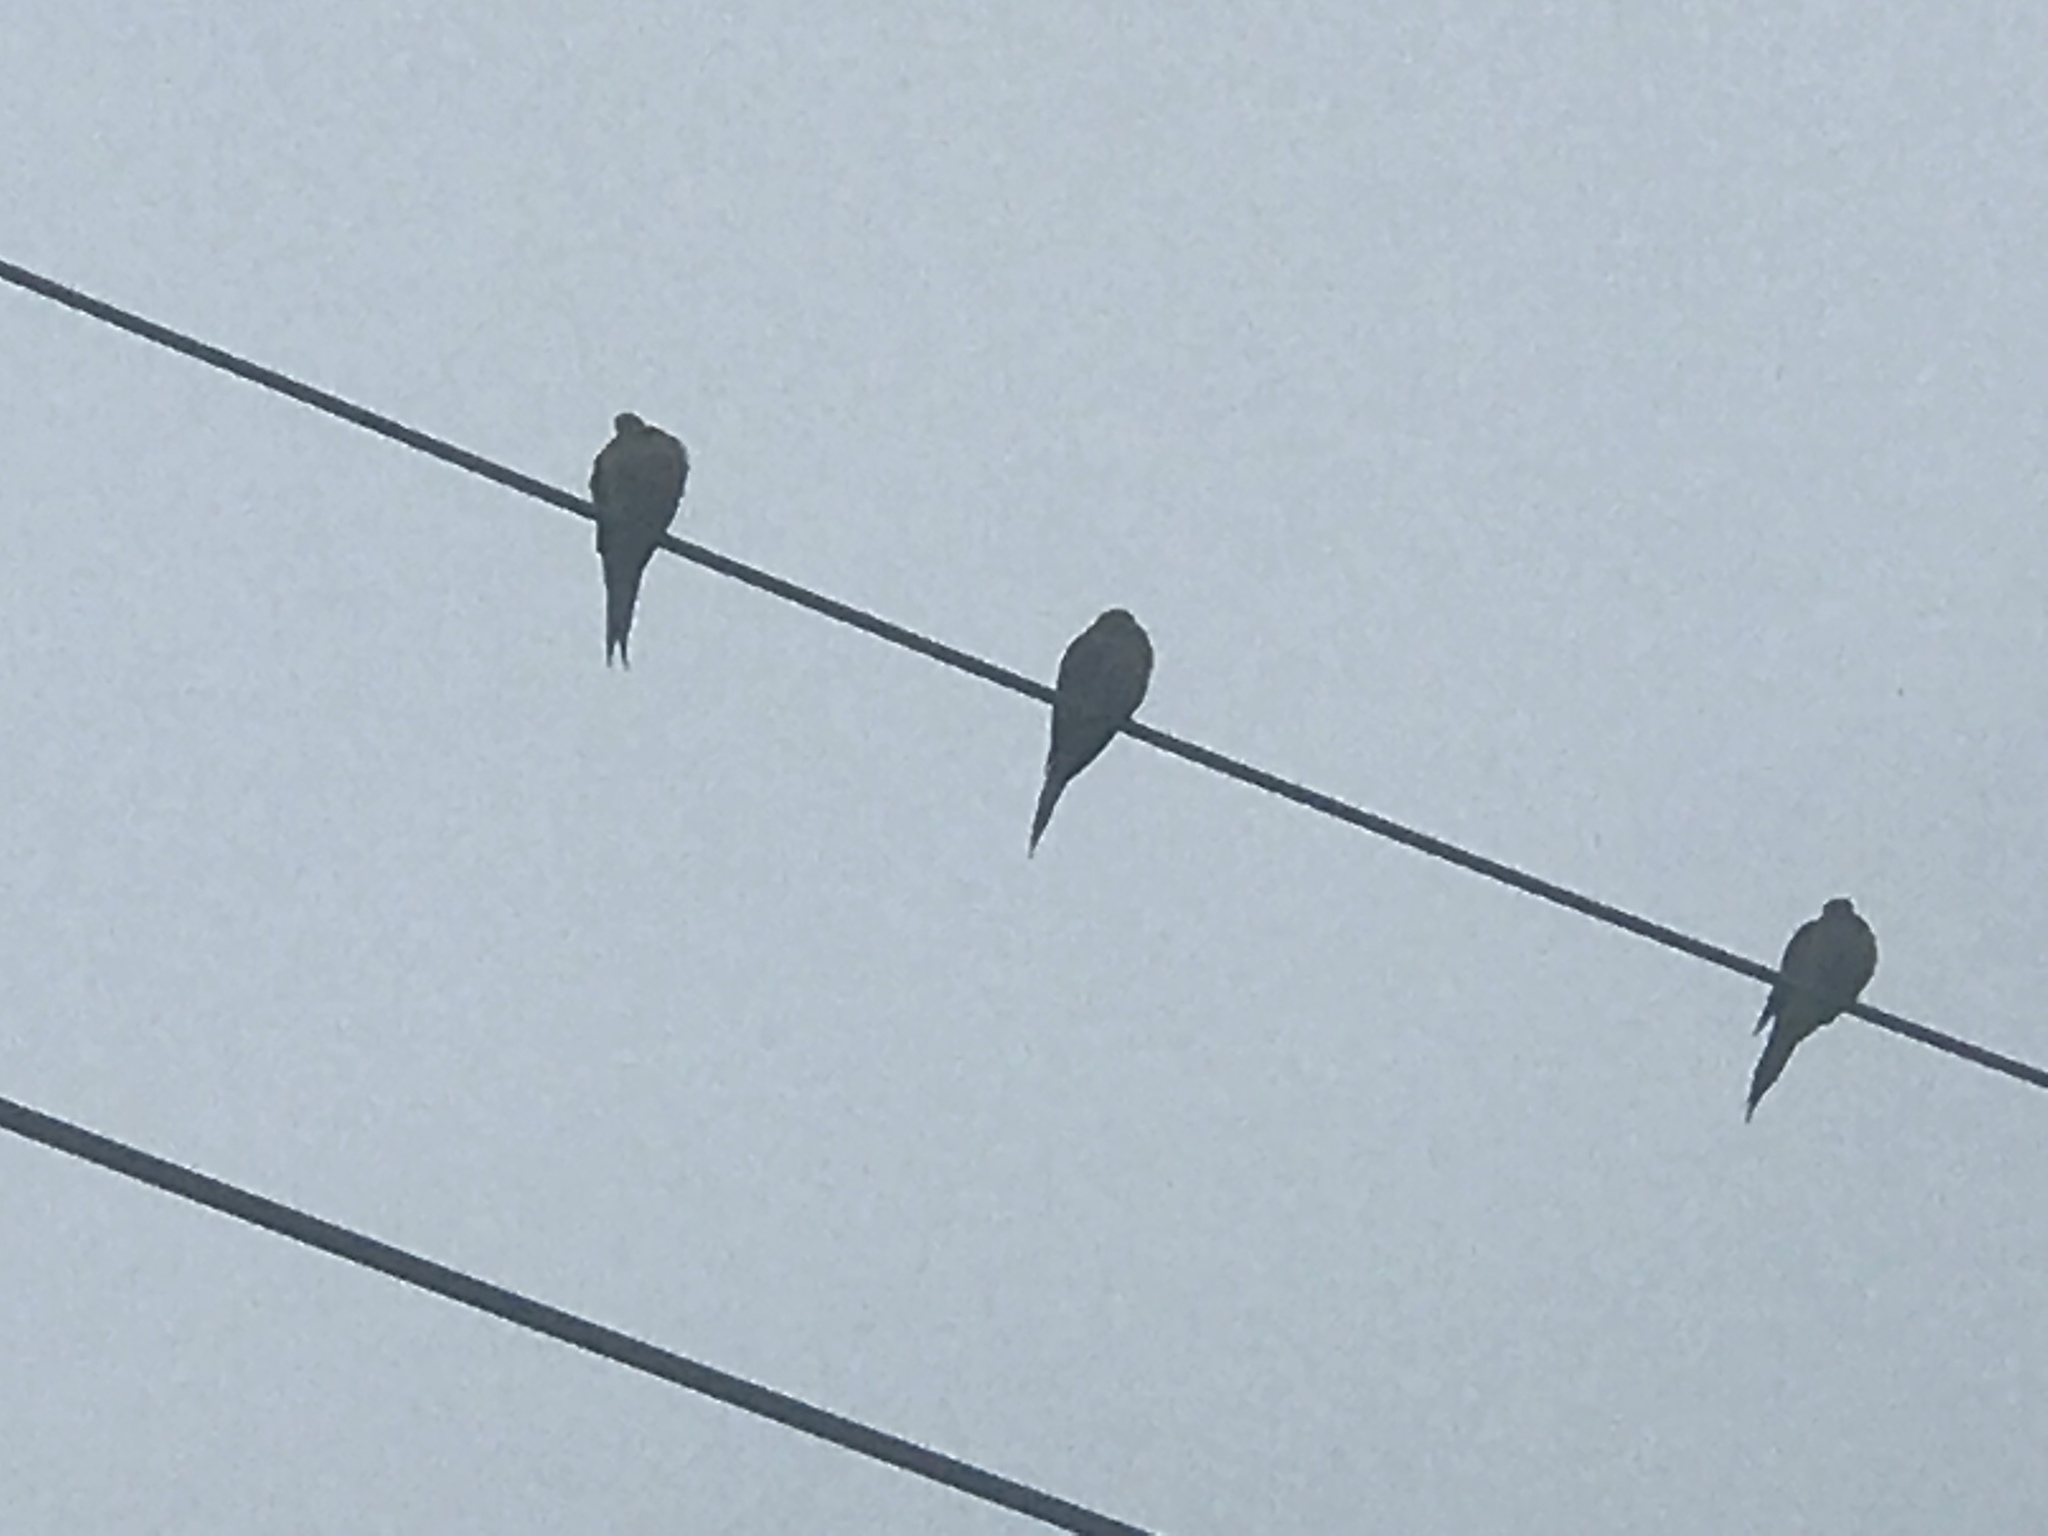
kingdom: Animalia
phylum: Chordata
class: Aves
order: Columbiformes
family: Columbidae
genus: Zenaida
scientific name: Zenaida macroura
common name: Mourning dove
